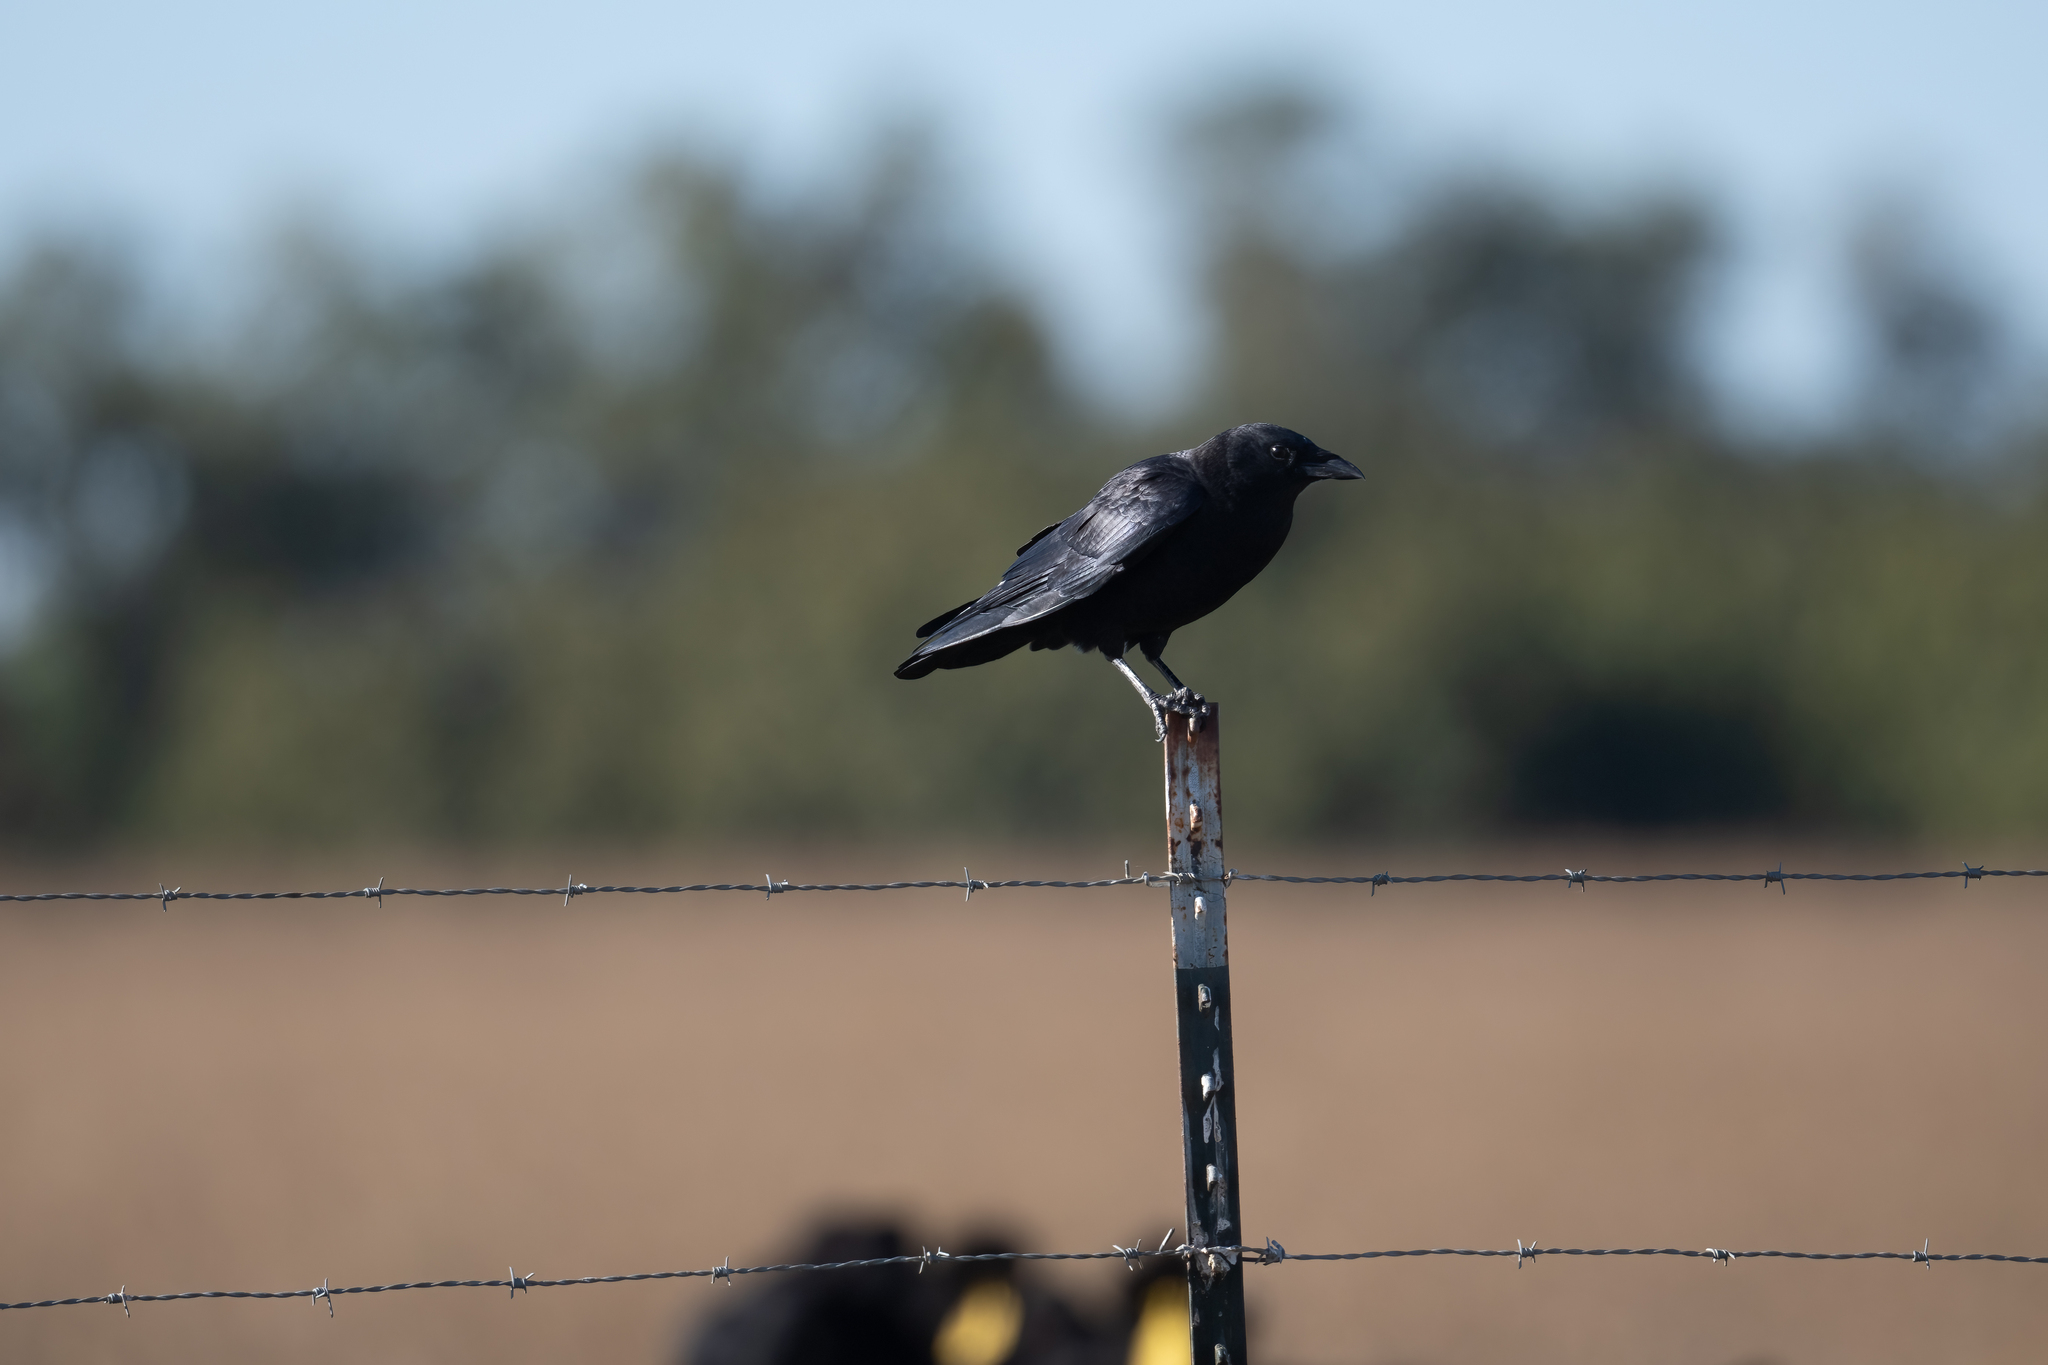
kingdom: Animalia
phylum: Chordata
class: Aves
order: Passeriformes
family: Corvidae
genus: Corvus
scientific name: Corvus brachyrhynchos
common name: American crow
